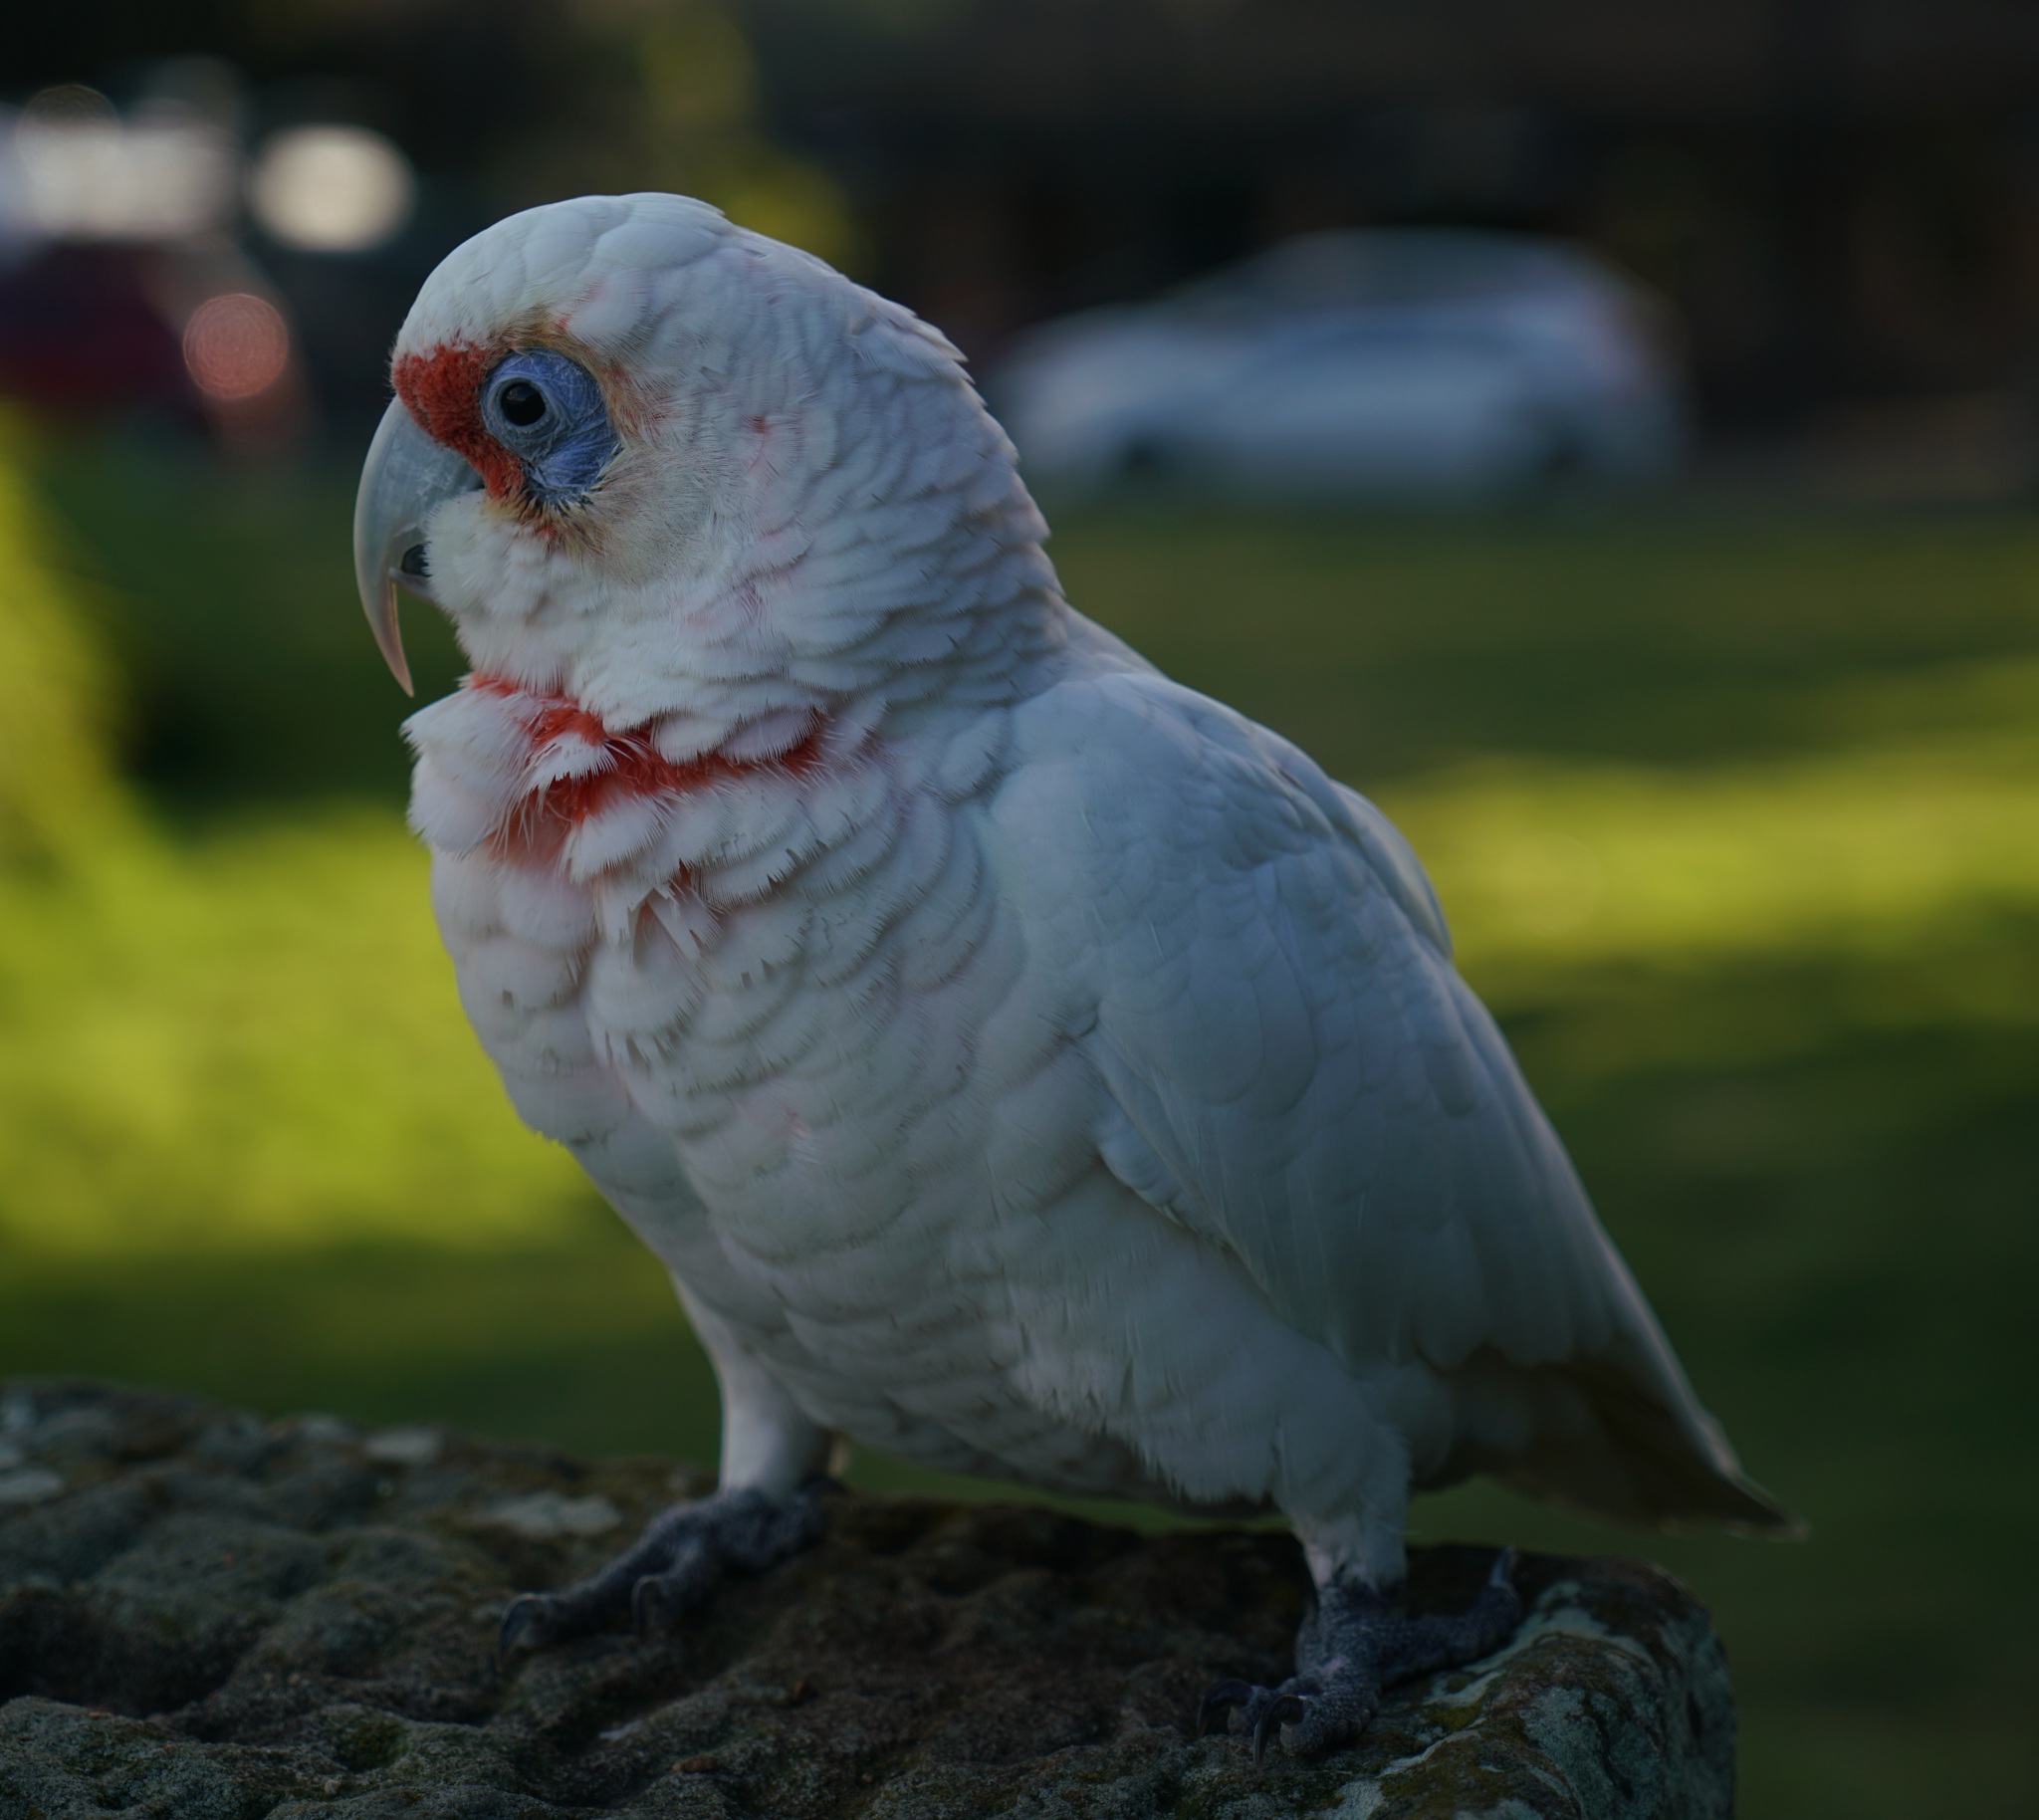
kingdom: Animalia
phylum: Chordata
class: Aves
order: Psittaciformes
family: Psittacidae
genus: Cacatua
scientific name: Cacatua tenuirostris
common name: Long-billed corella
